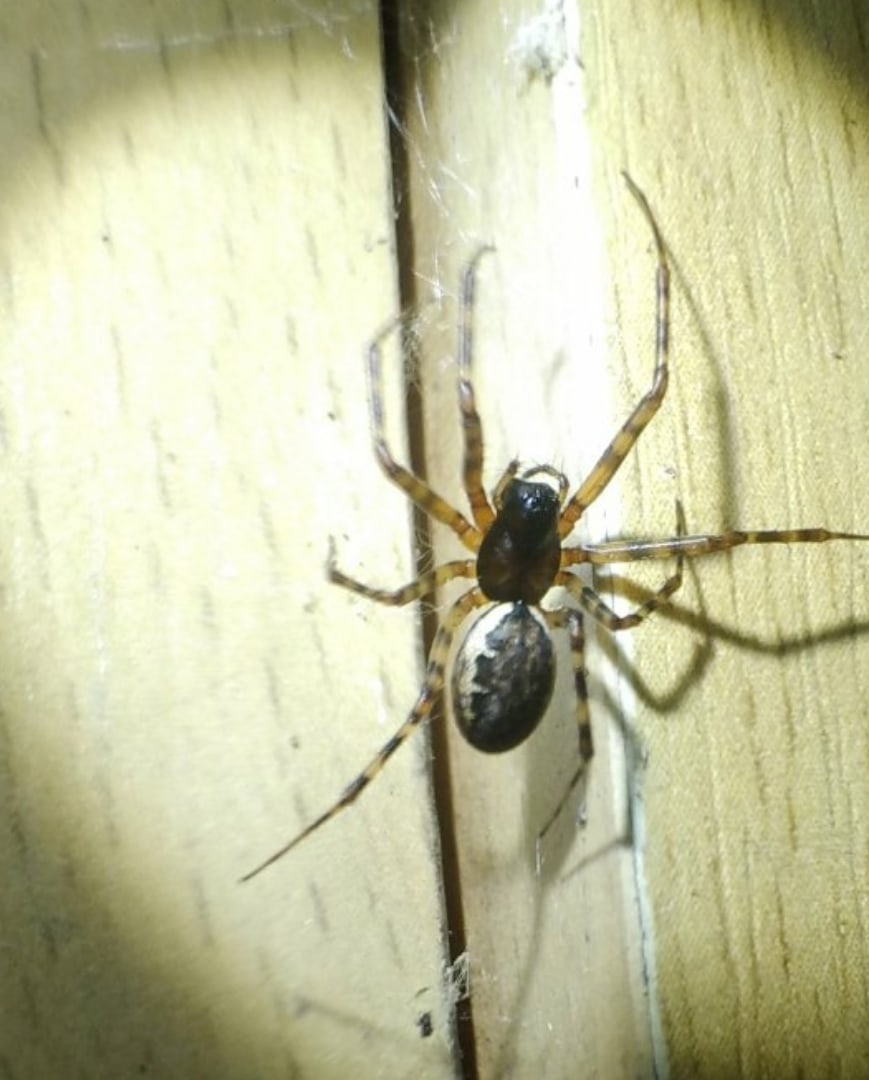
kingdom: Animalia
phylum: Arthropoda
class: Arachnida
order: Araneae
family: Linyphiidae
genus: Neriene
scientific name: Neriene montana
